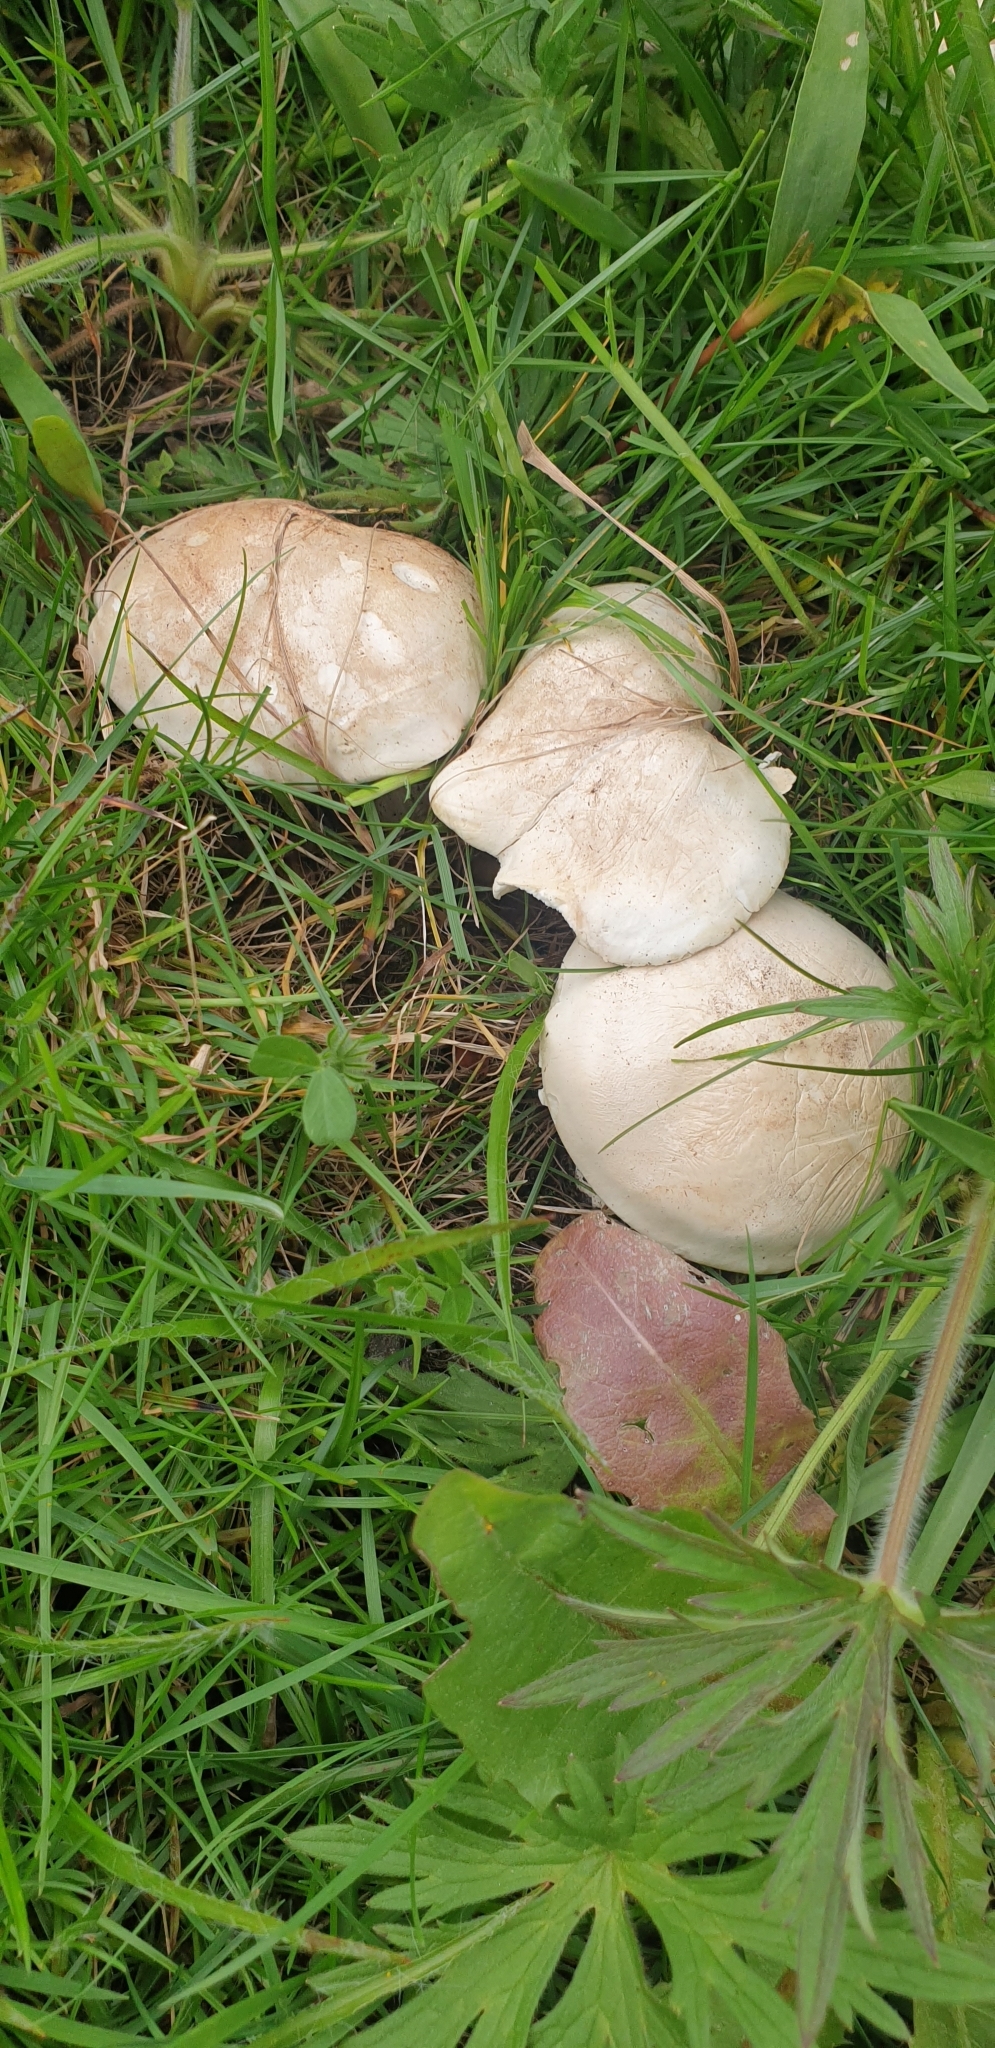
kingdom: Fungi
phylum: Basidiomycota
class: Agaricomycetes
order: Agaricales
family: Lyophyllaceae
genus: Calocybe
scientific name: Calocybe gambosa
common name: St. george's mushroom
